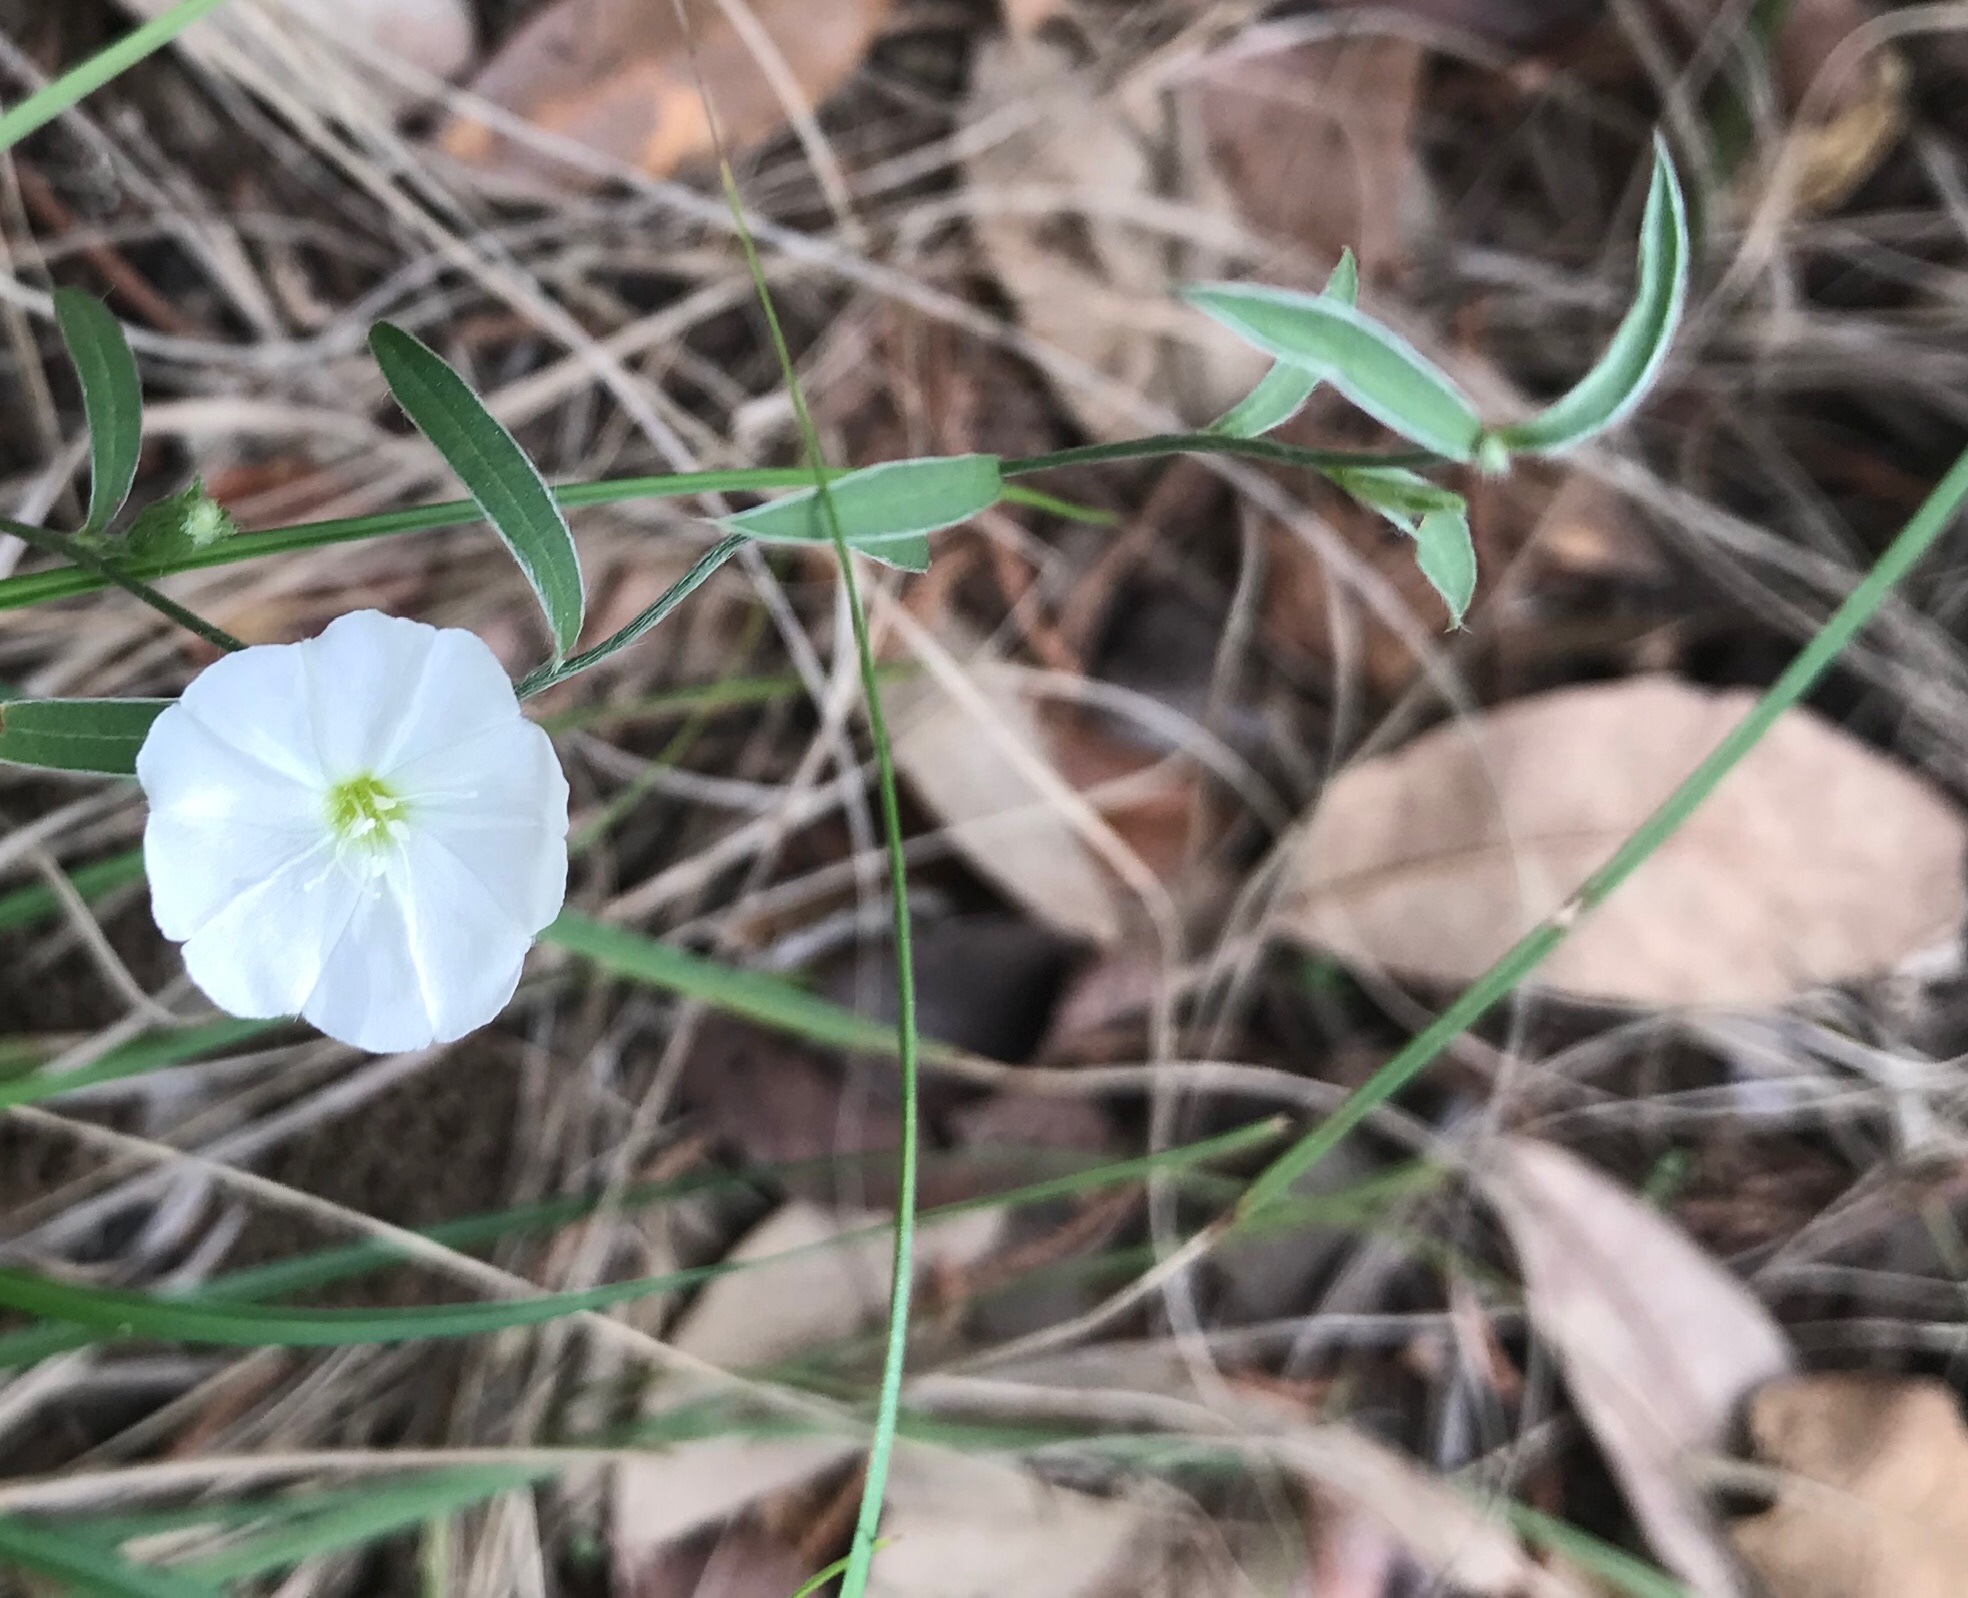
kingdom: Plantae
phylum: Tracheophyta
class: Magnoliopsida
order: Solanales
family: Convolvulaceae
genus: Evolvulus
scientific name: Evolvulus sericeus
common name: Blue dots
